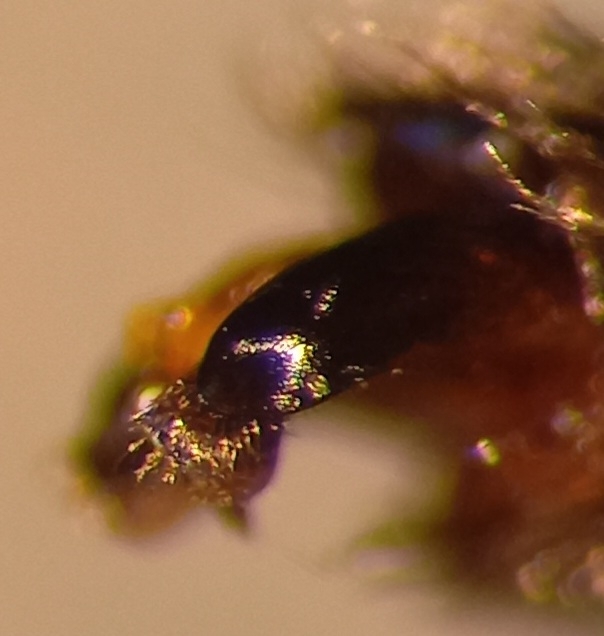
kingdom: Animalia
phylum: Arthropoda
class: Insecta
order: Hymenoptera
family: Halictidae
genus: Sphecodes
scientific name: Sphecodes majalis
